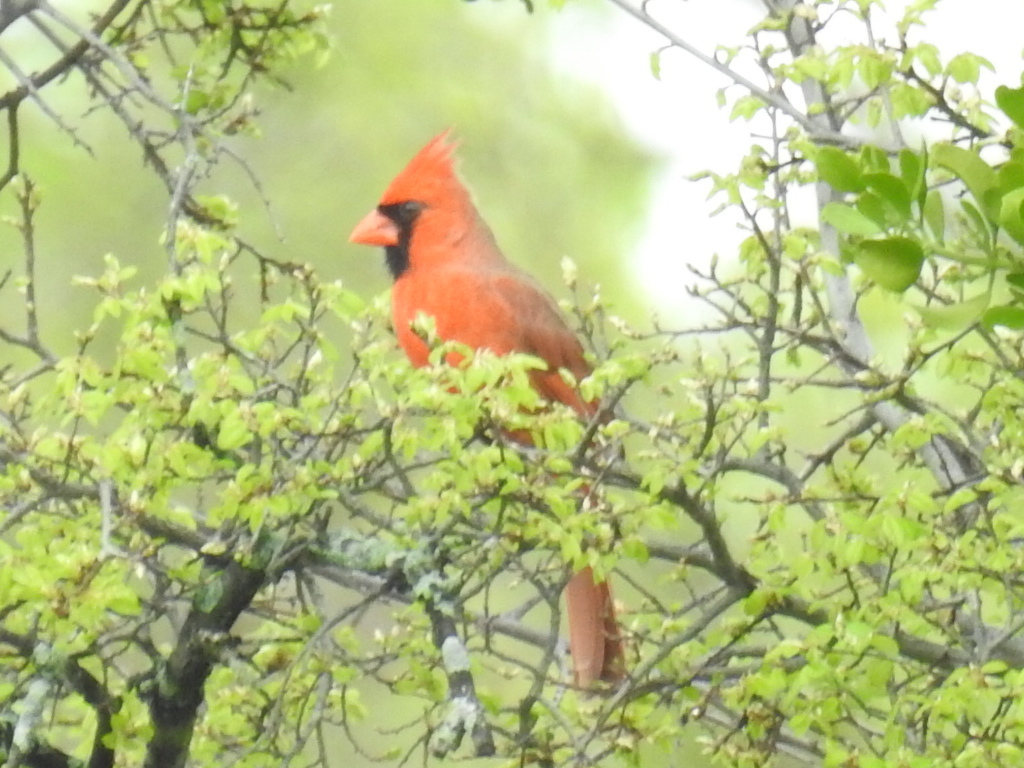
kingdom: Animalia
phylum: Chordata
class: Aves
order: Passeriformes
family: Cardinalidae
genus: Cardinalis
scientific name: Cardinalis cardinalis
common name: Northern cardinal
